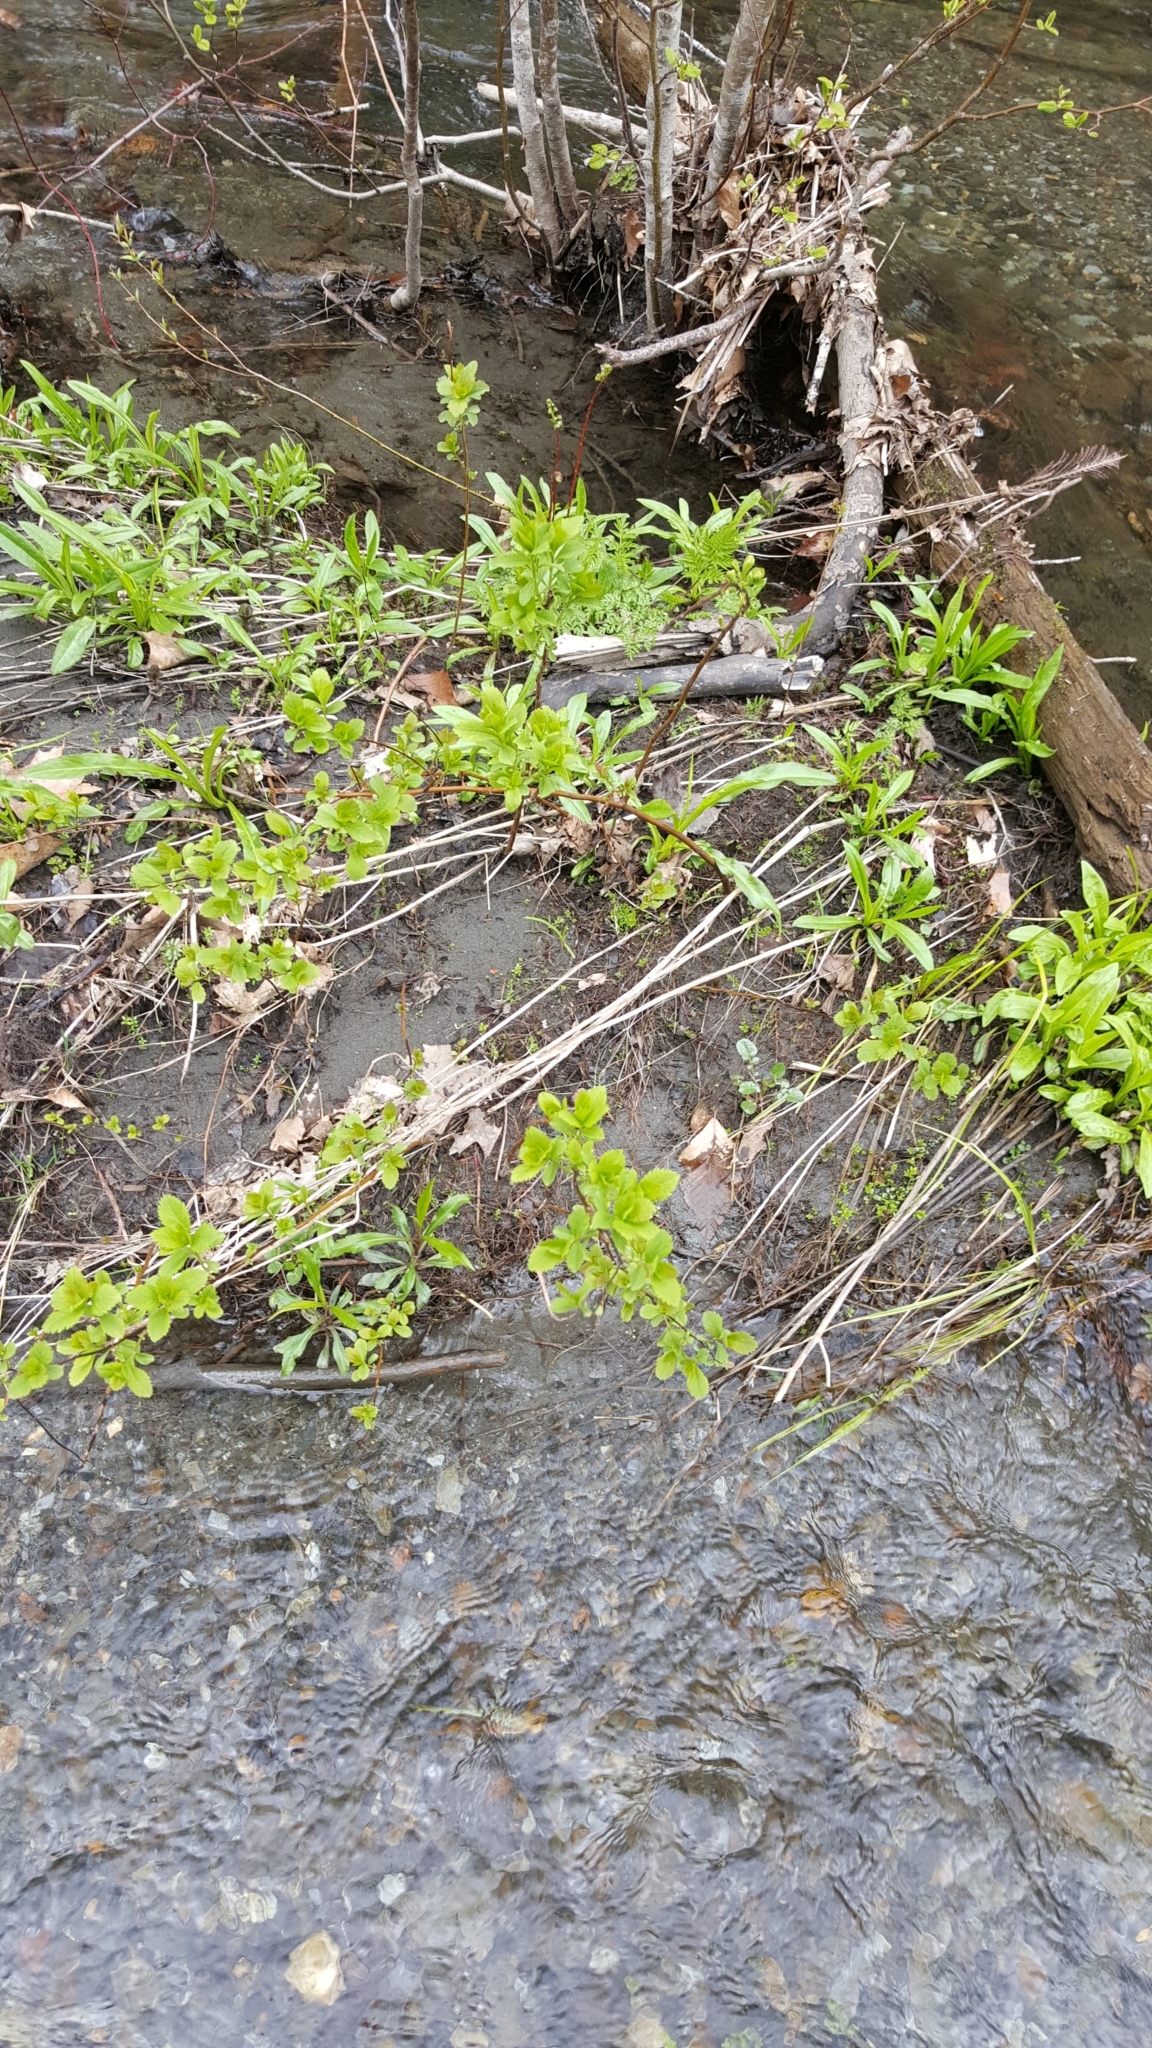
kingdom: Plantae
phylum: Tracheophyta
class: Magnoliopsida
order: Rosales
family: Rosaceae
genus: Spiraea
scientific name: Spiraea alba
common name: Pale bridewort
